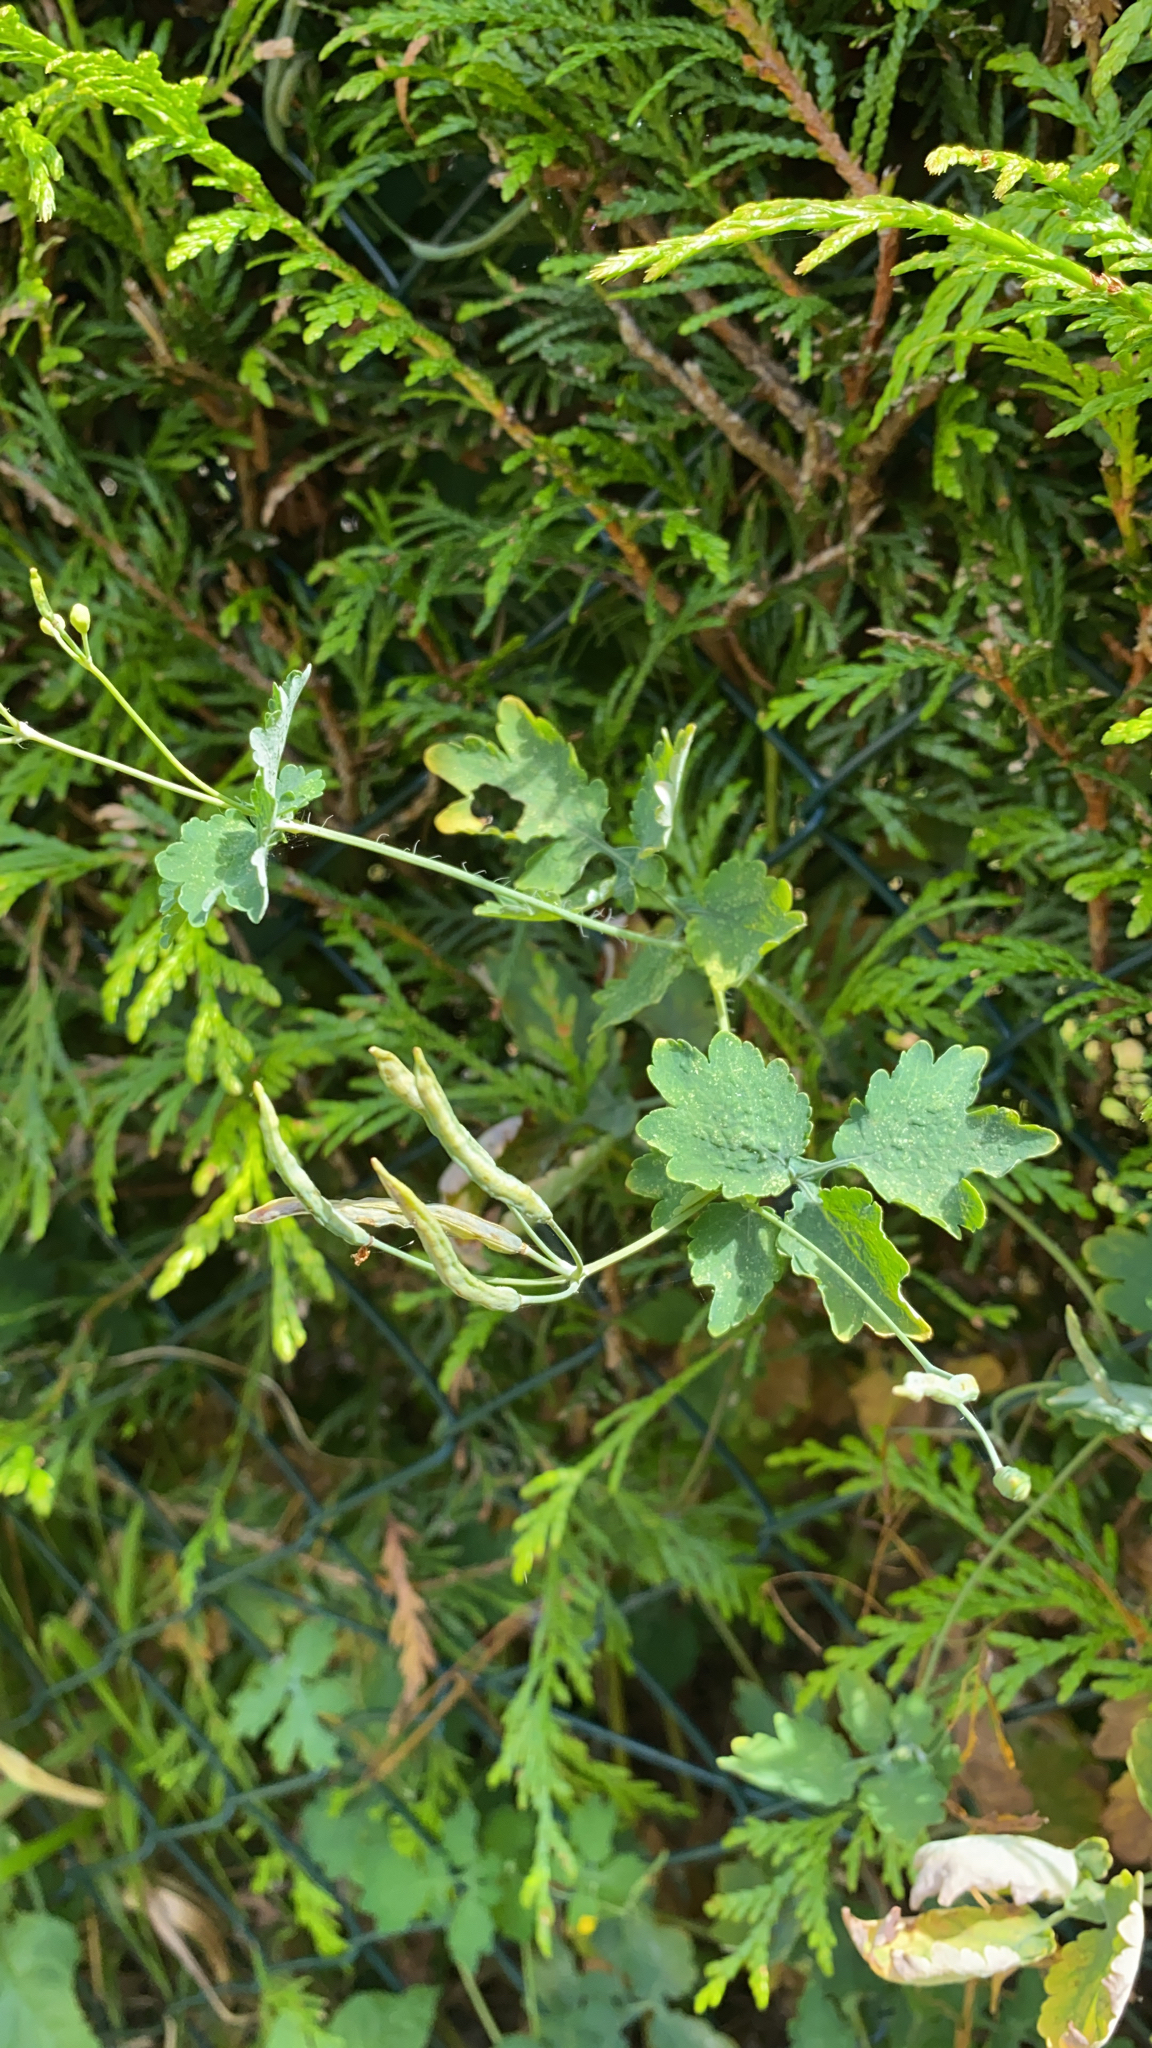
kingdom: Plantae
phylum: Tracheophyta
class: Magnoliopsida
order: Ranunculales
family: Papaveraceae
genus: Chelidonium
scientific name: Chelidonium majus
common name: Greater celandine
